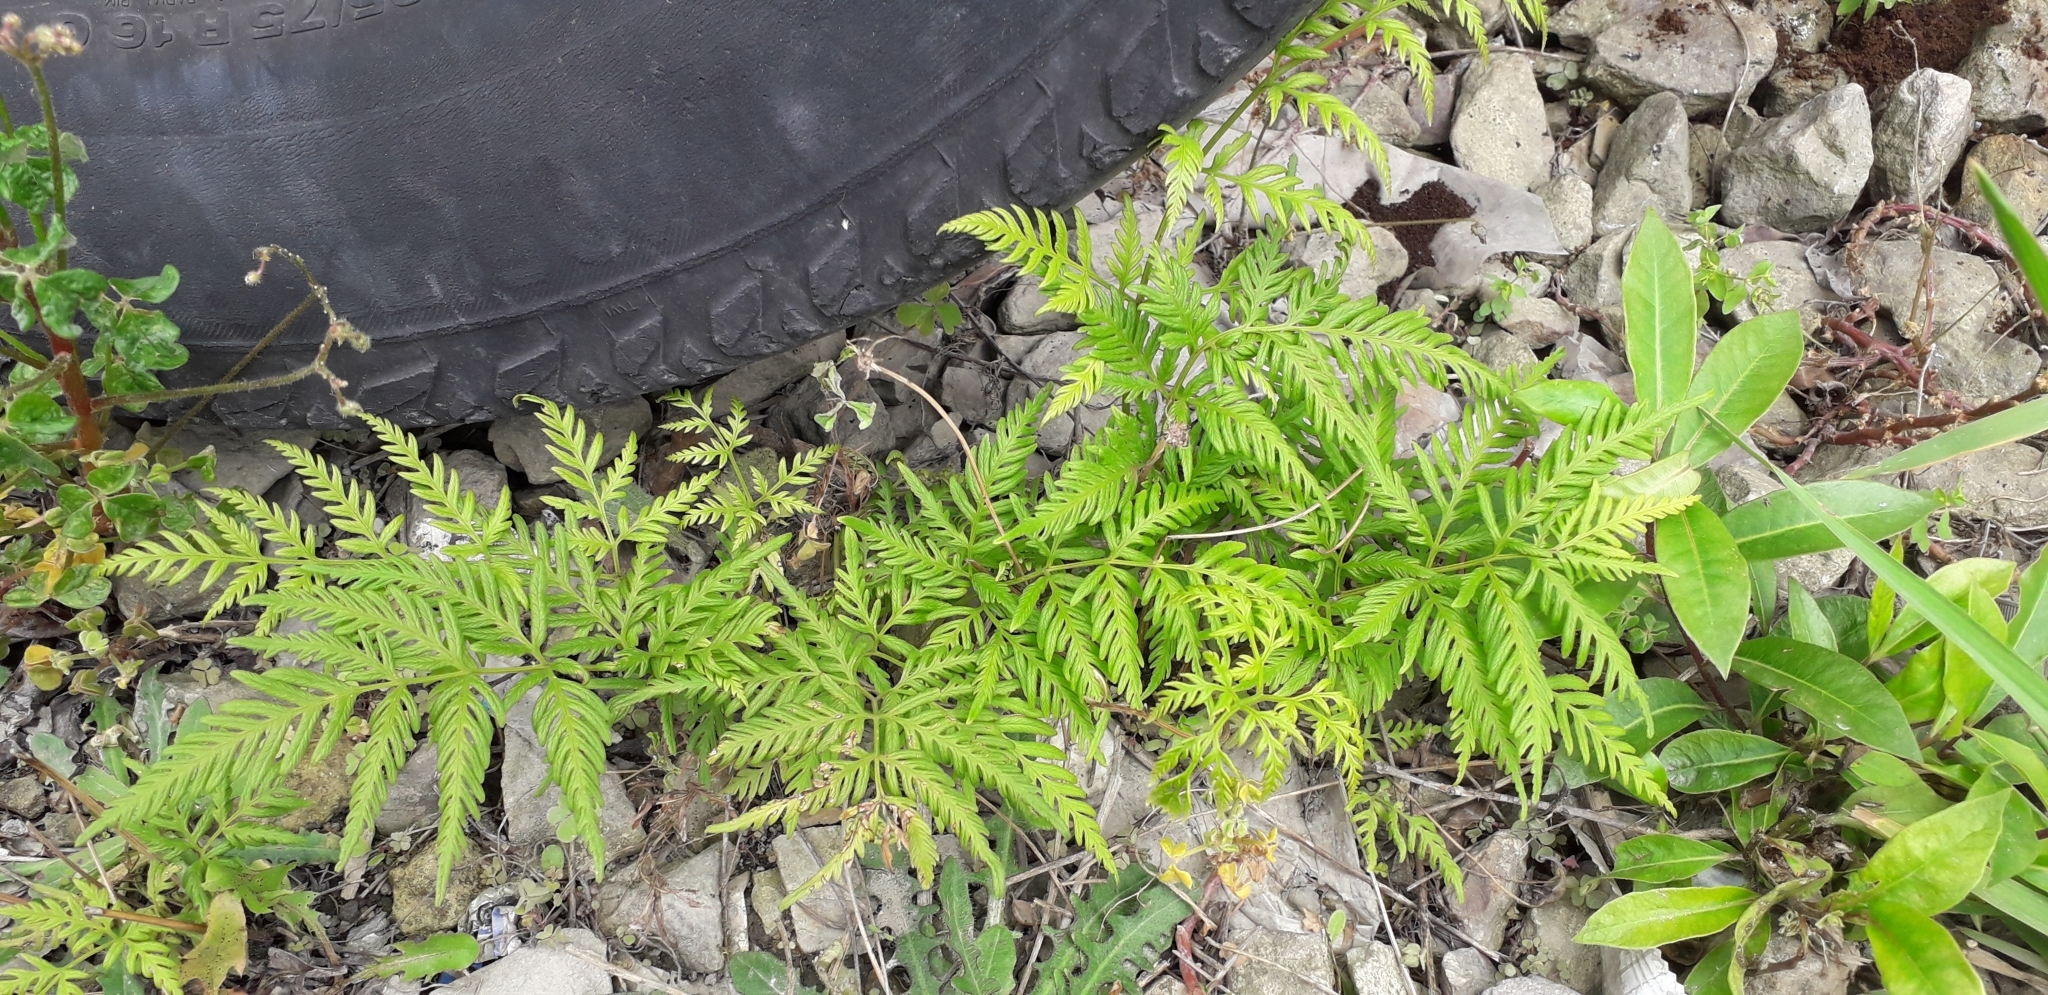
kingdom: Plantae
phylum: Tracheophyta
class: Polypodiopsida
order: Polypodiales
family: Pteridaceae
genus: Pteris
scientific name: Pteris tremula
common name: Australian brake
